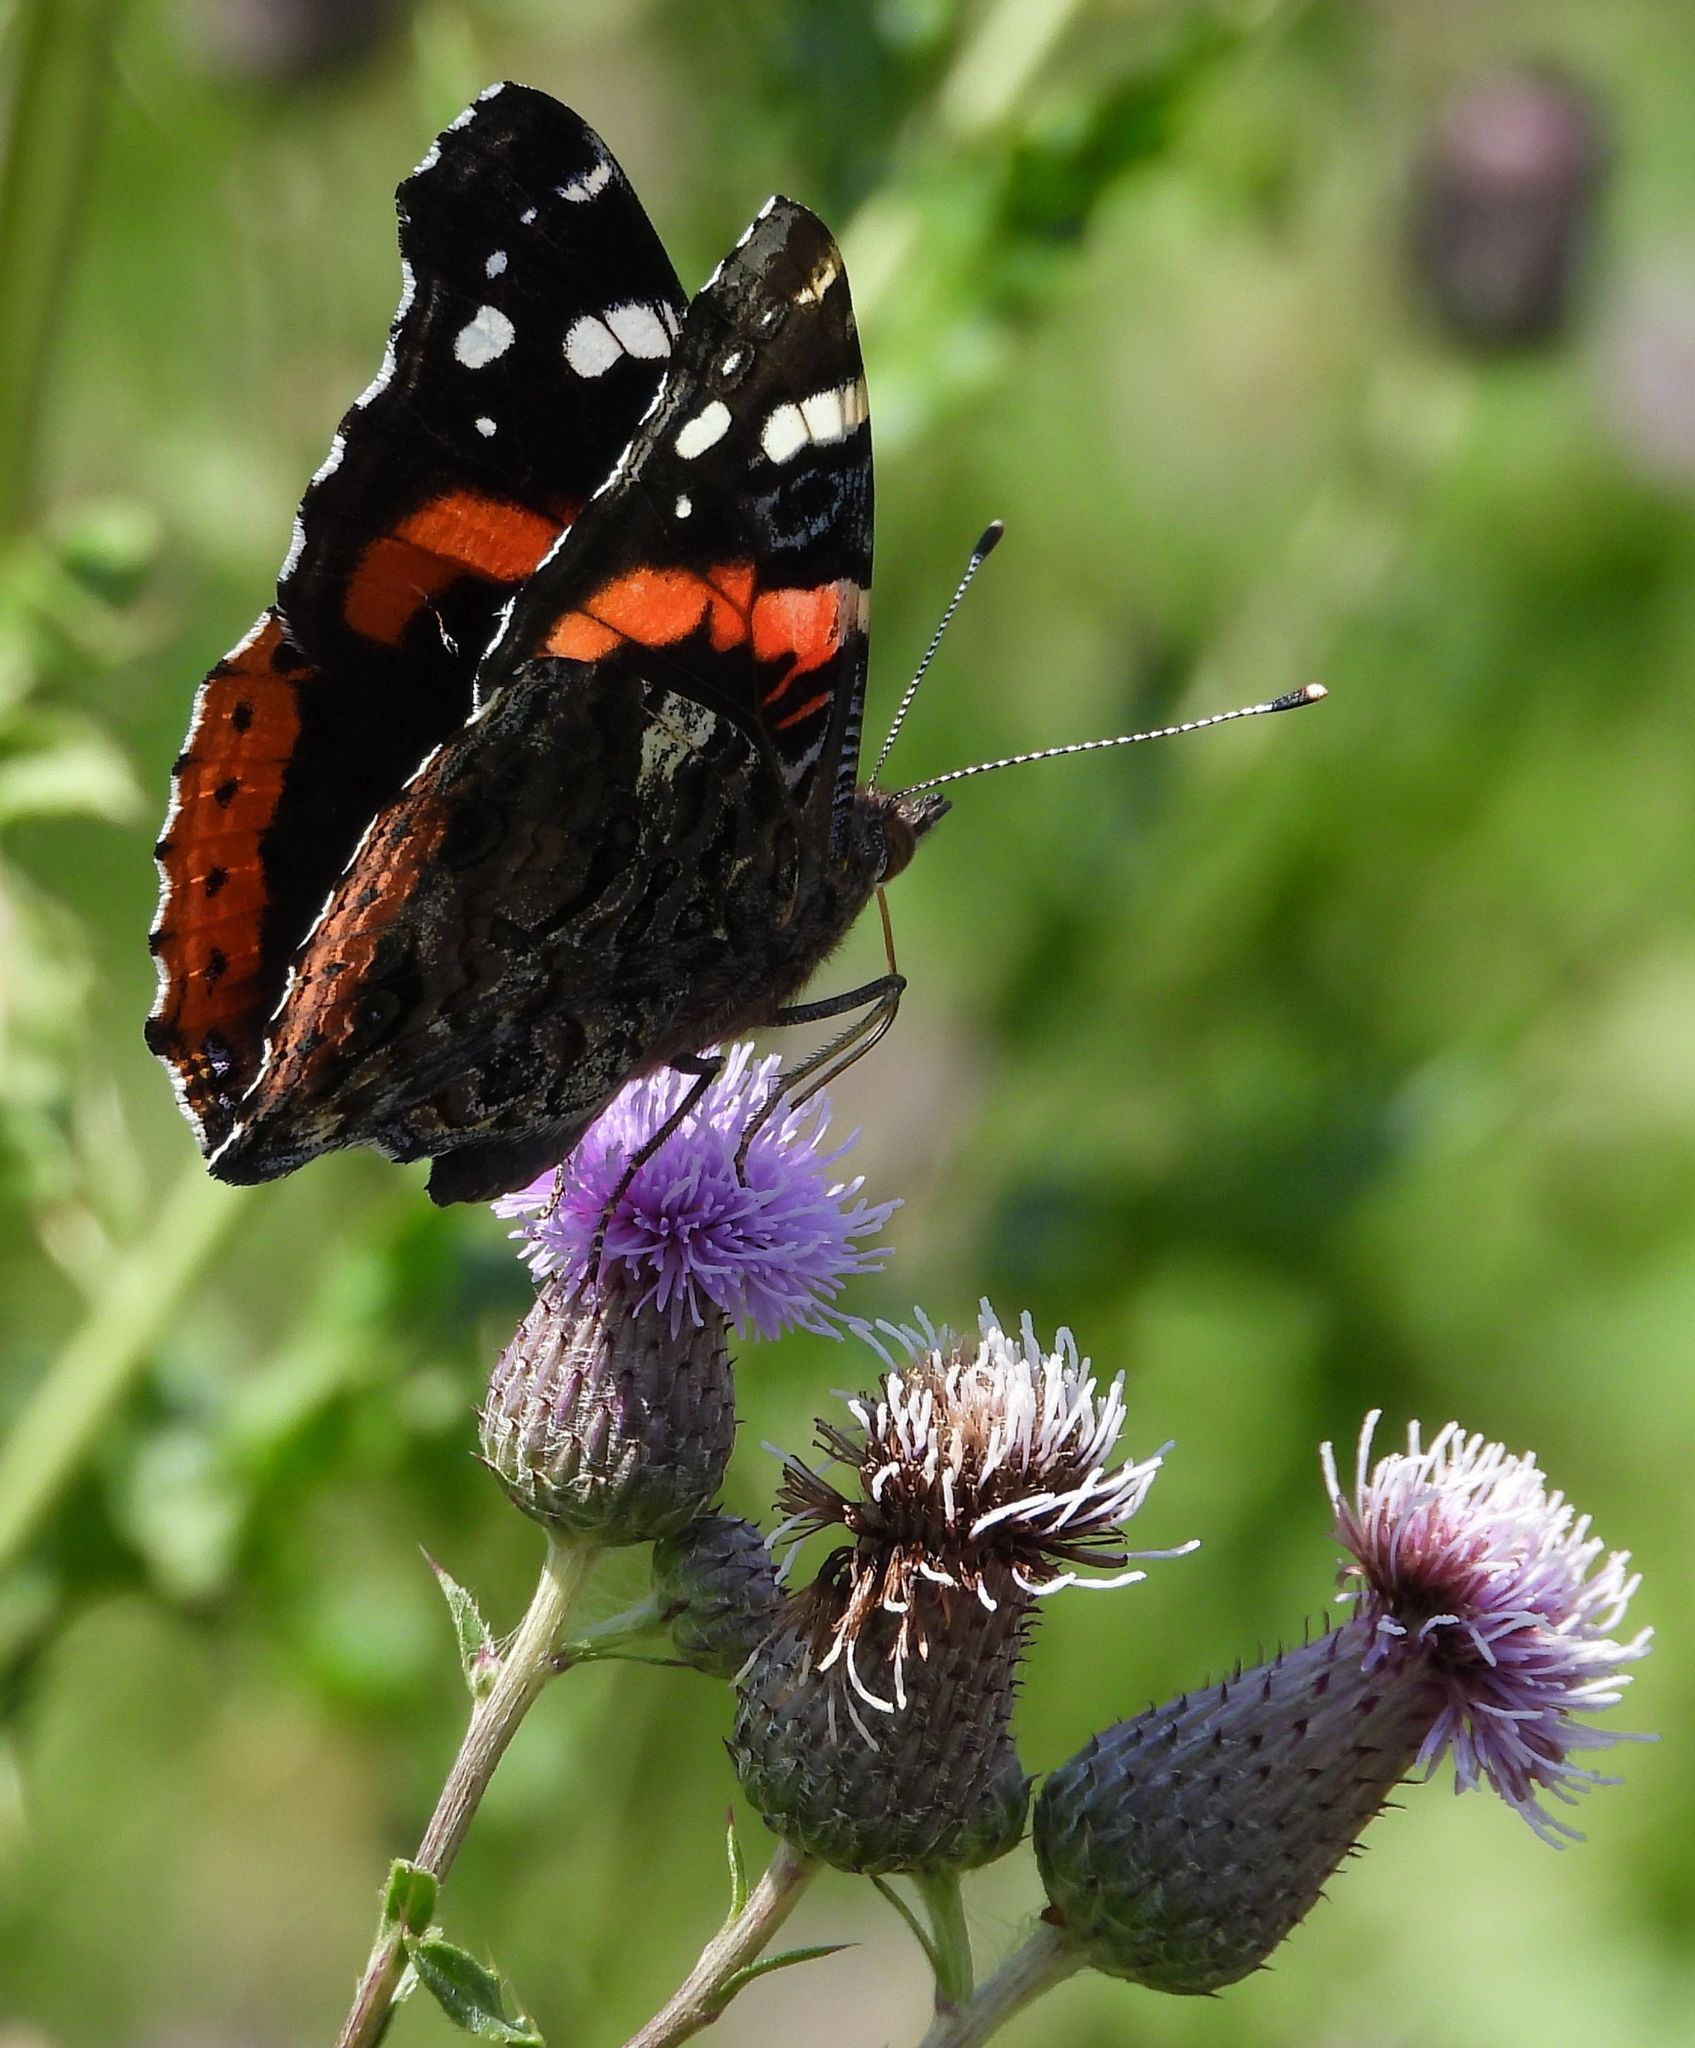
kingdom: Animalia
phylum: Arthropoda
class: Insecta
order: Lepidoptera
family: Nymphalidae
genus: Vanessa
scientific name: Vanessa atalanta
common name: Red admiral
